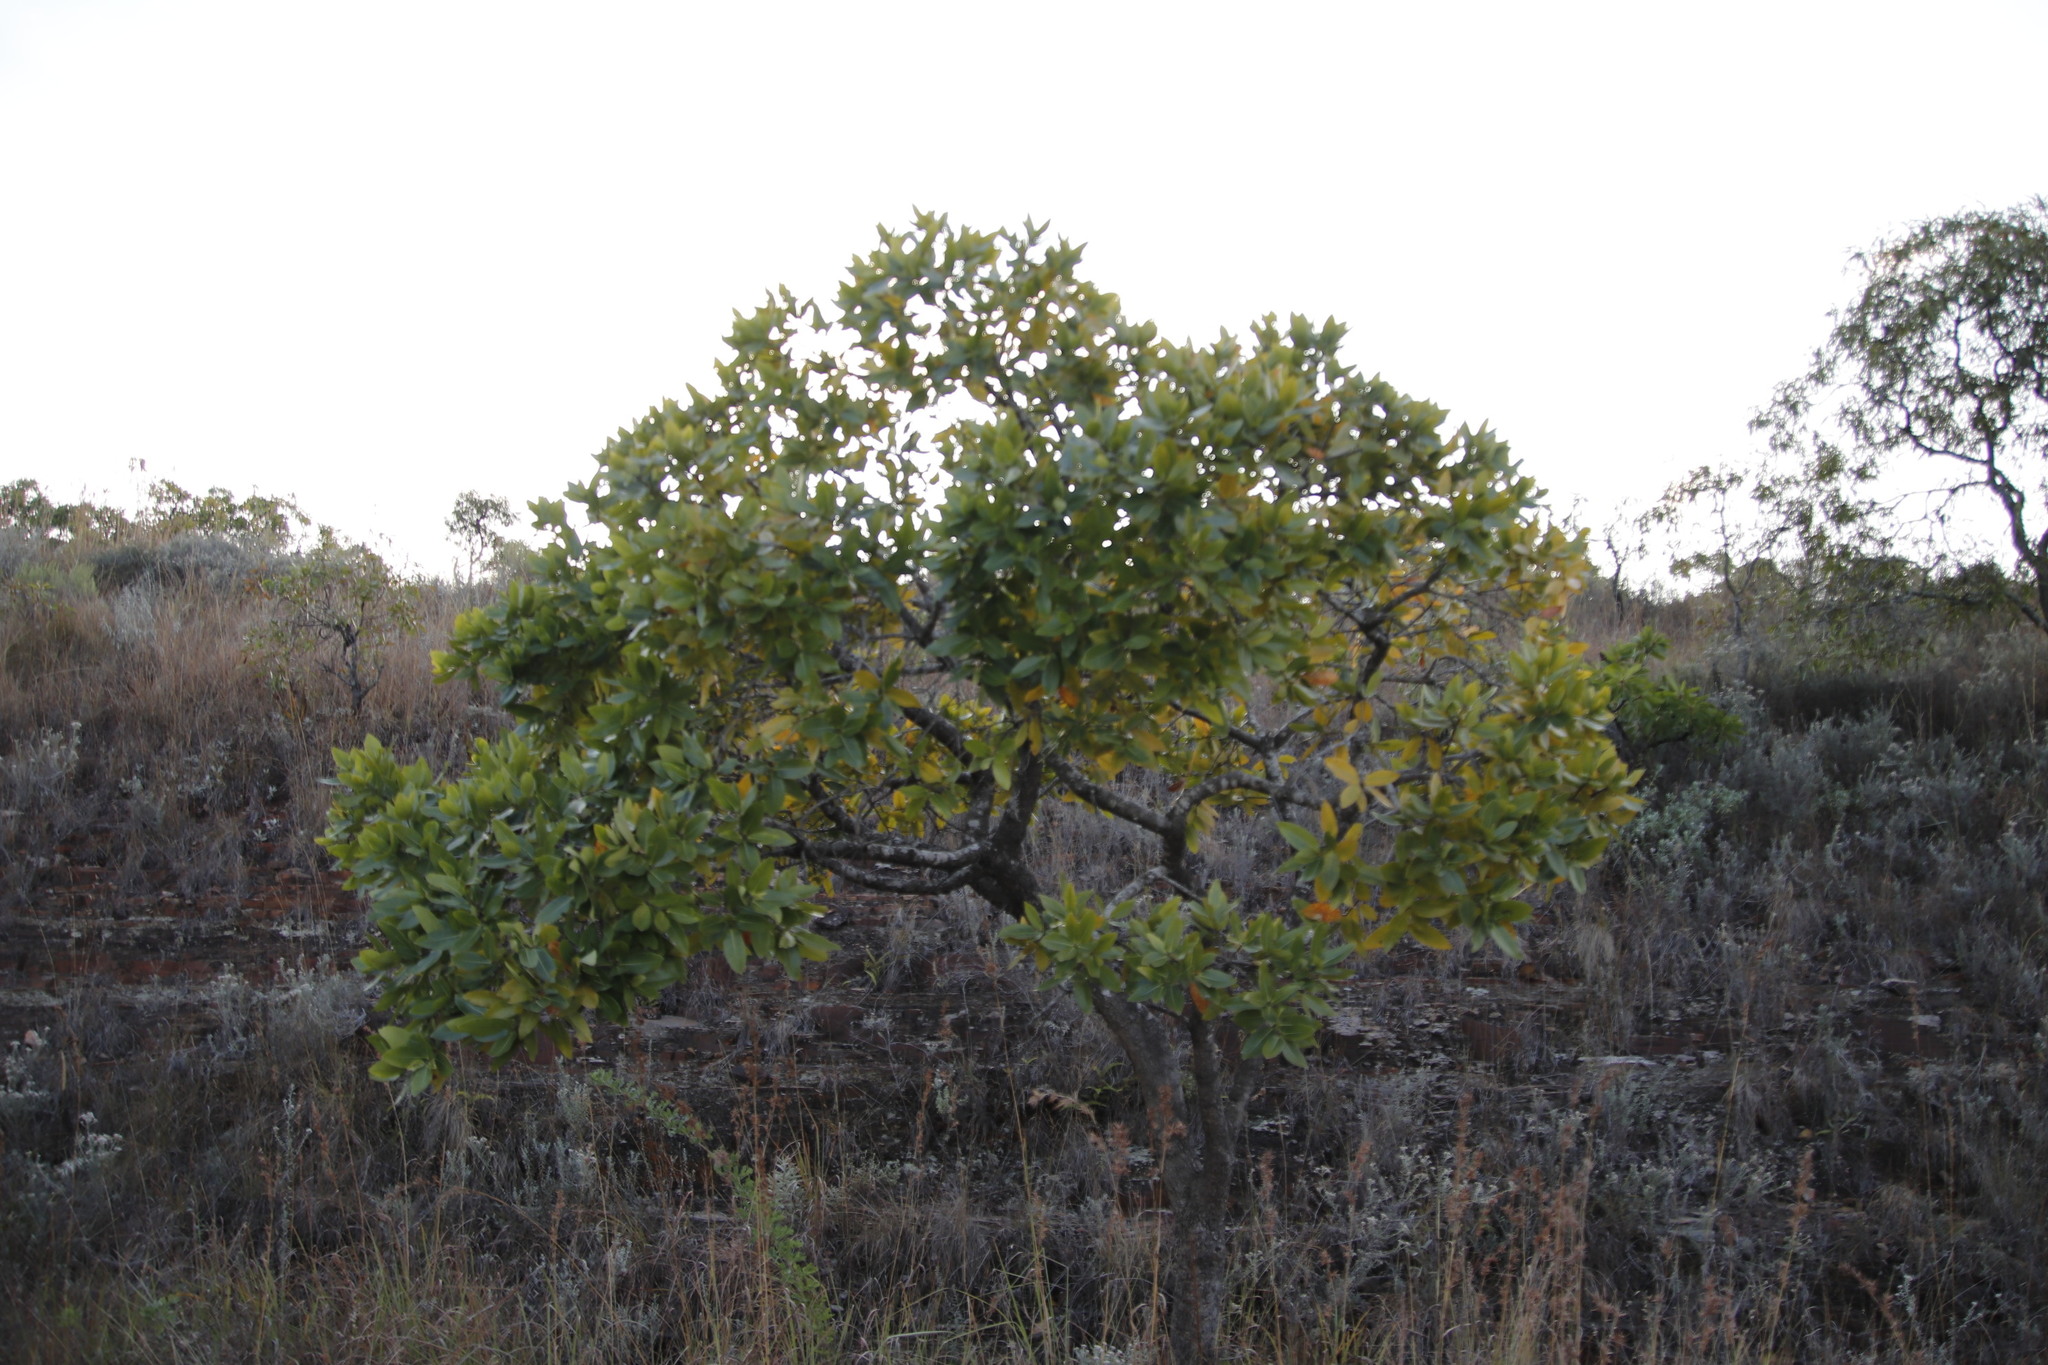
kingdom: Plantae
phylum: Tracheophyta
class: Magnoliopsida
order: Proteales
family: Proteaceae
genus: Protea
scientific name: Protea caffra
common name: Common sugarbush
